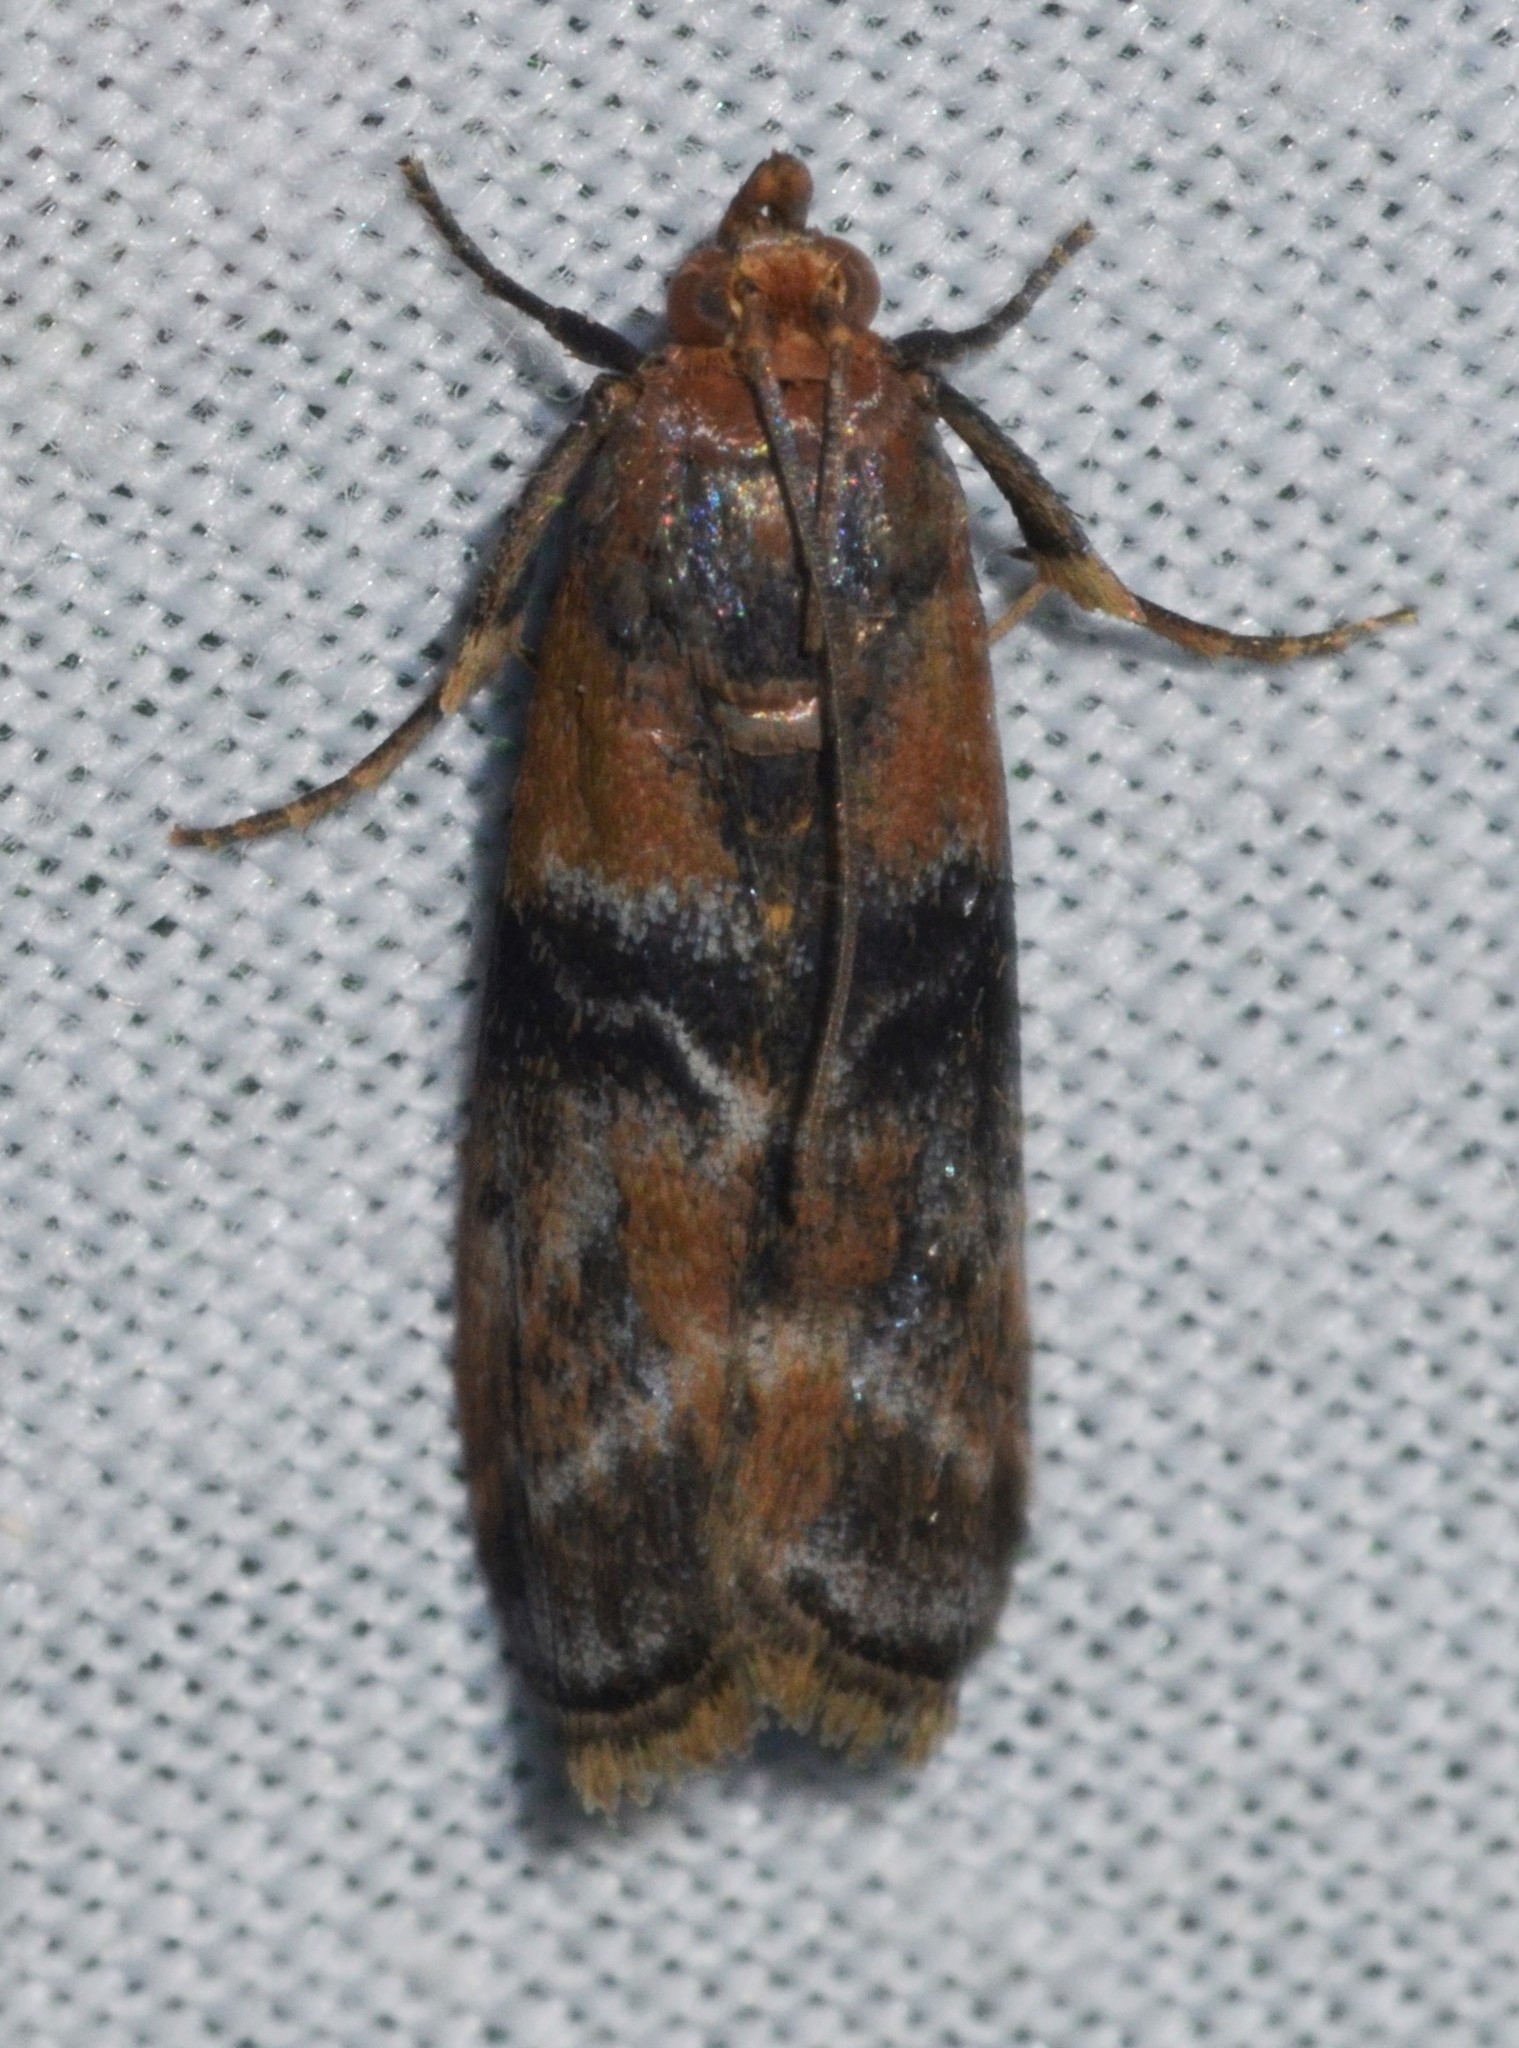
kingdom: Animalia
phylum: Arthropoda
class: Insecta
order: Lepidoptera
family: Pyralidae
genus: Meroptera
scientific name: Meroptera cviatella
